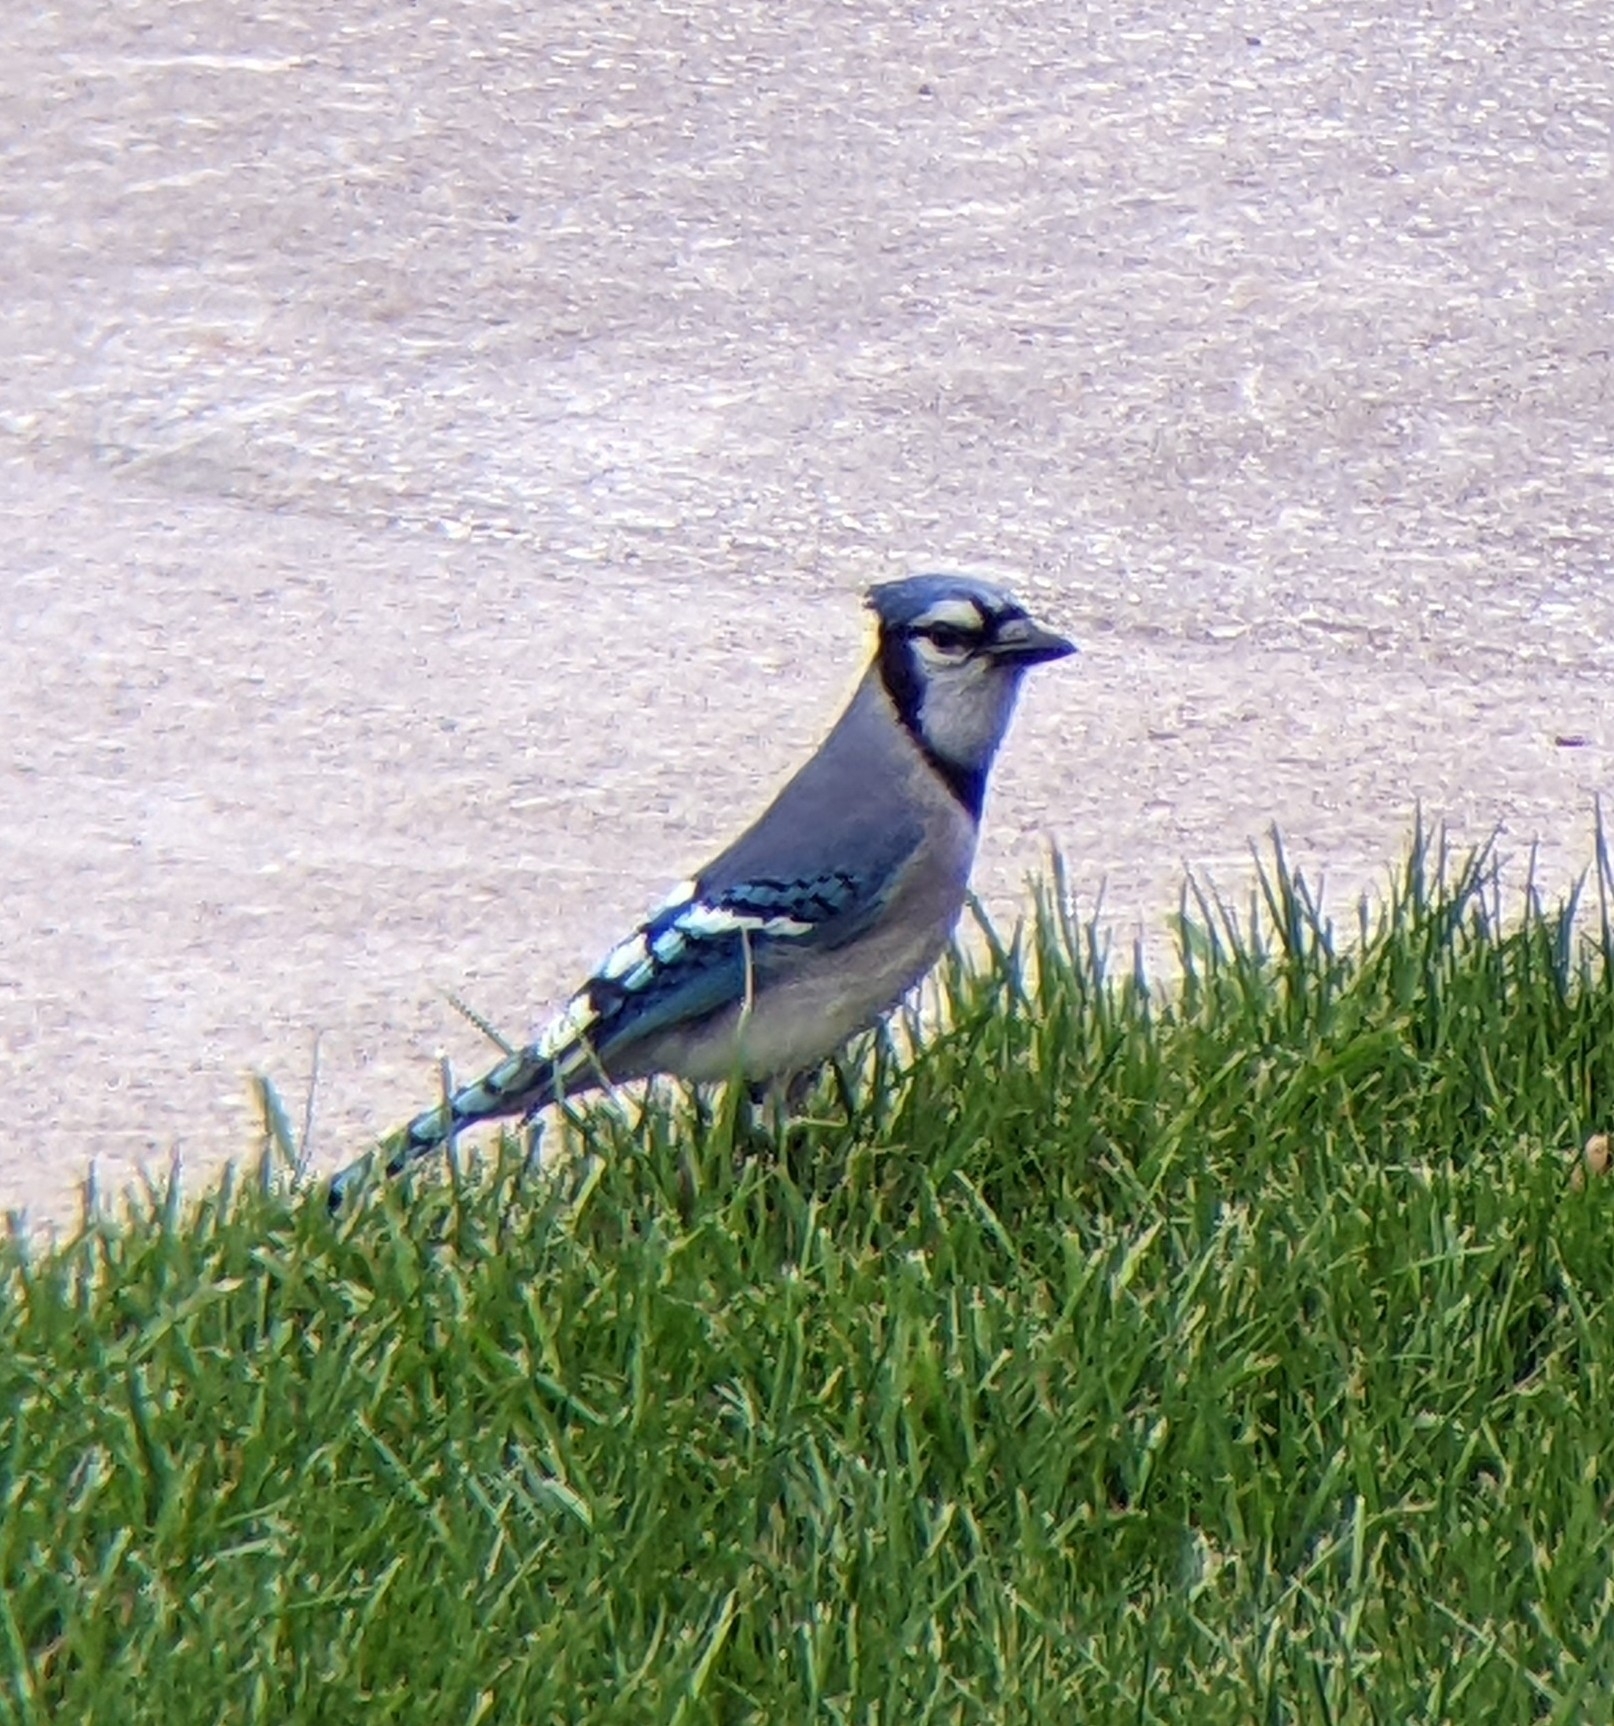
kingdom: Animalia
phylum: Chordata
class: Aves
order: Passeriformes
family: Corvidae
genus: Cyanocitta
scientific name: Cyanocitta cristata
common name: Blue jay
